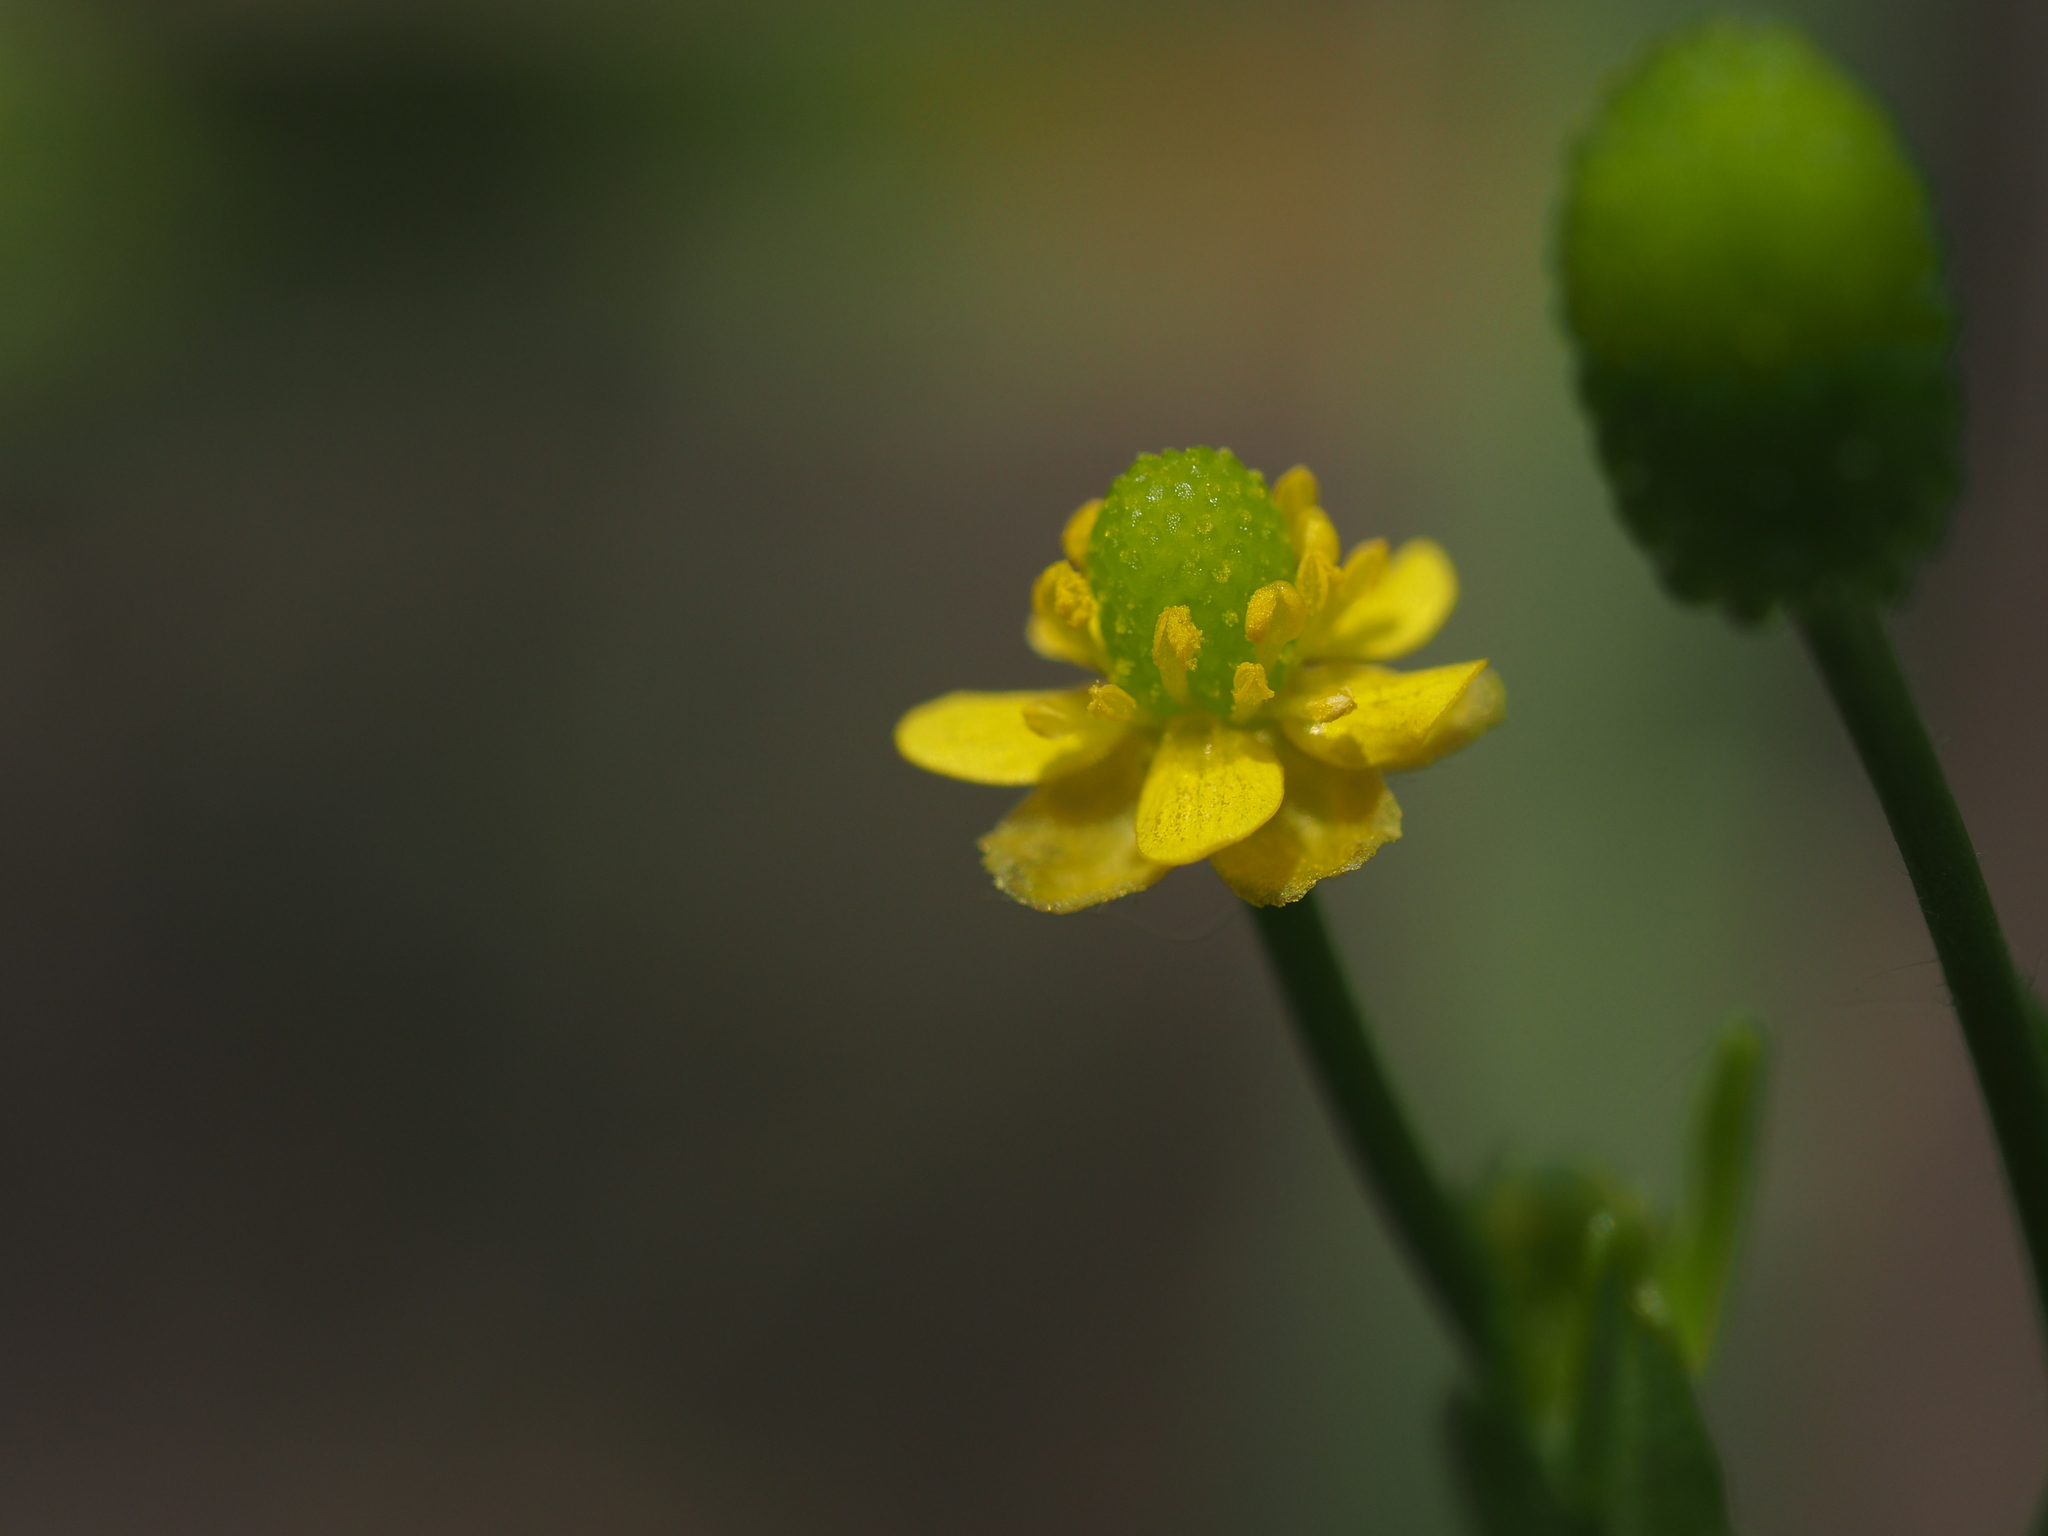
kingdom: Plantae
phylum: Tracheophyta
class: Magnoliopsida
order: Ranunculales
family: Ranunculaceae
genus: Ranunculus
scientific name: Ranunculus sceleratus
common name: Celery-leaved buttercup
